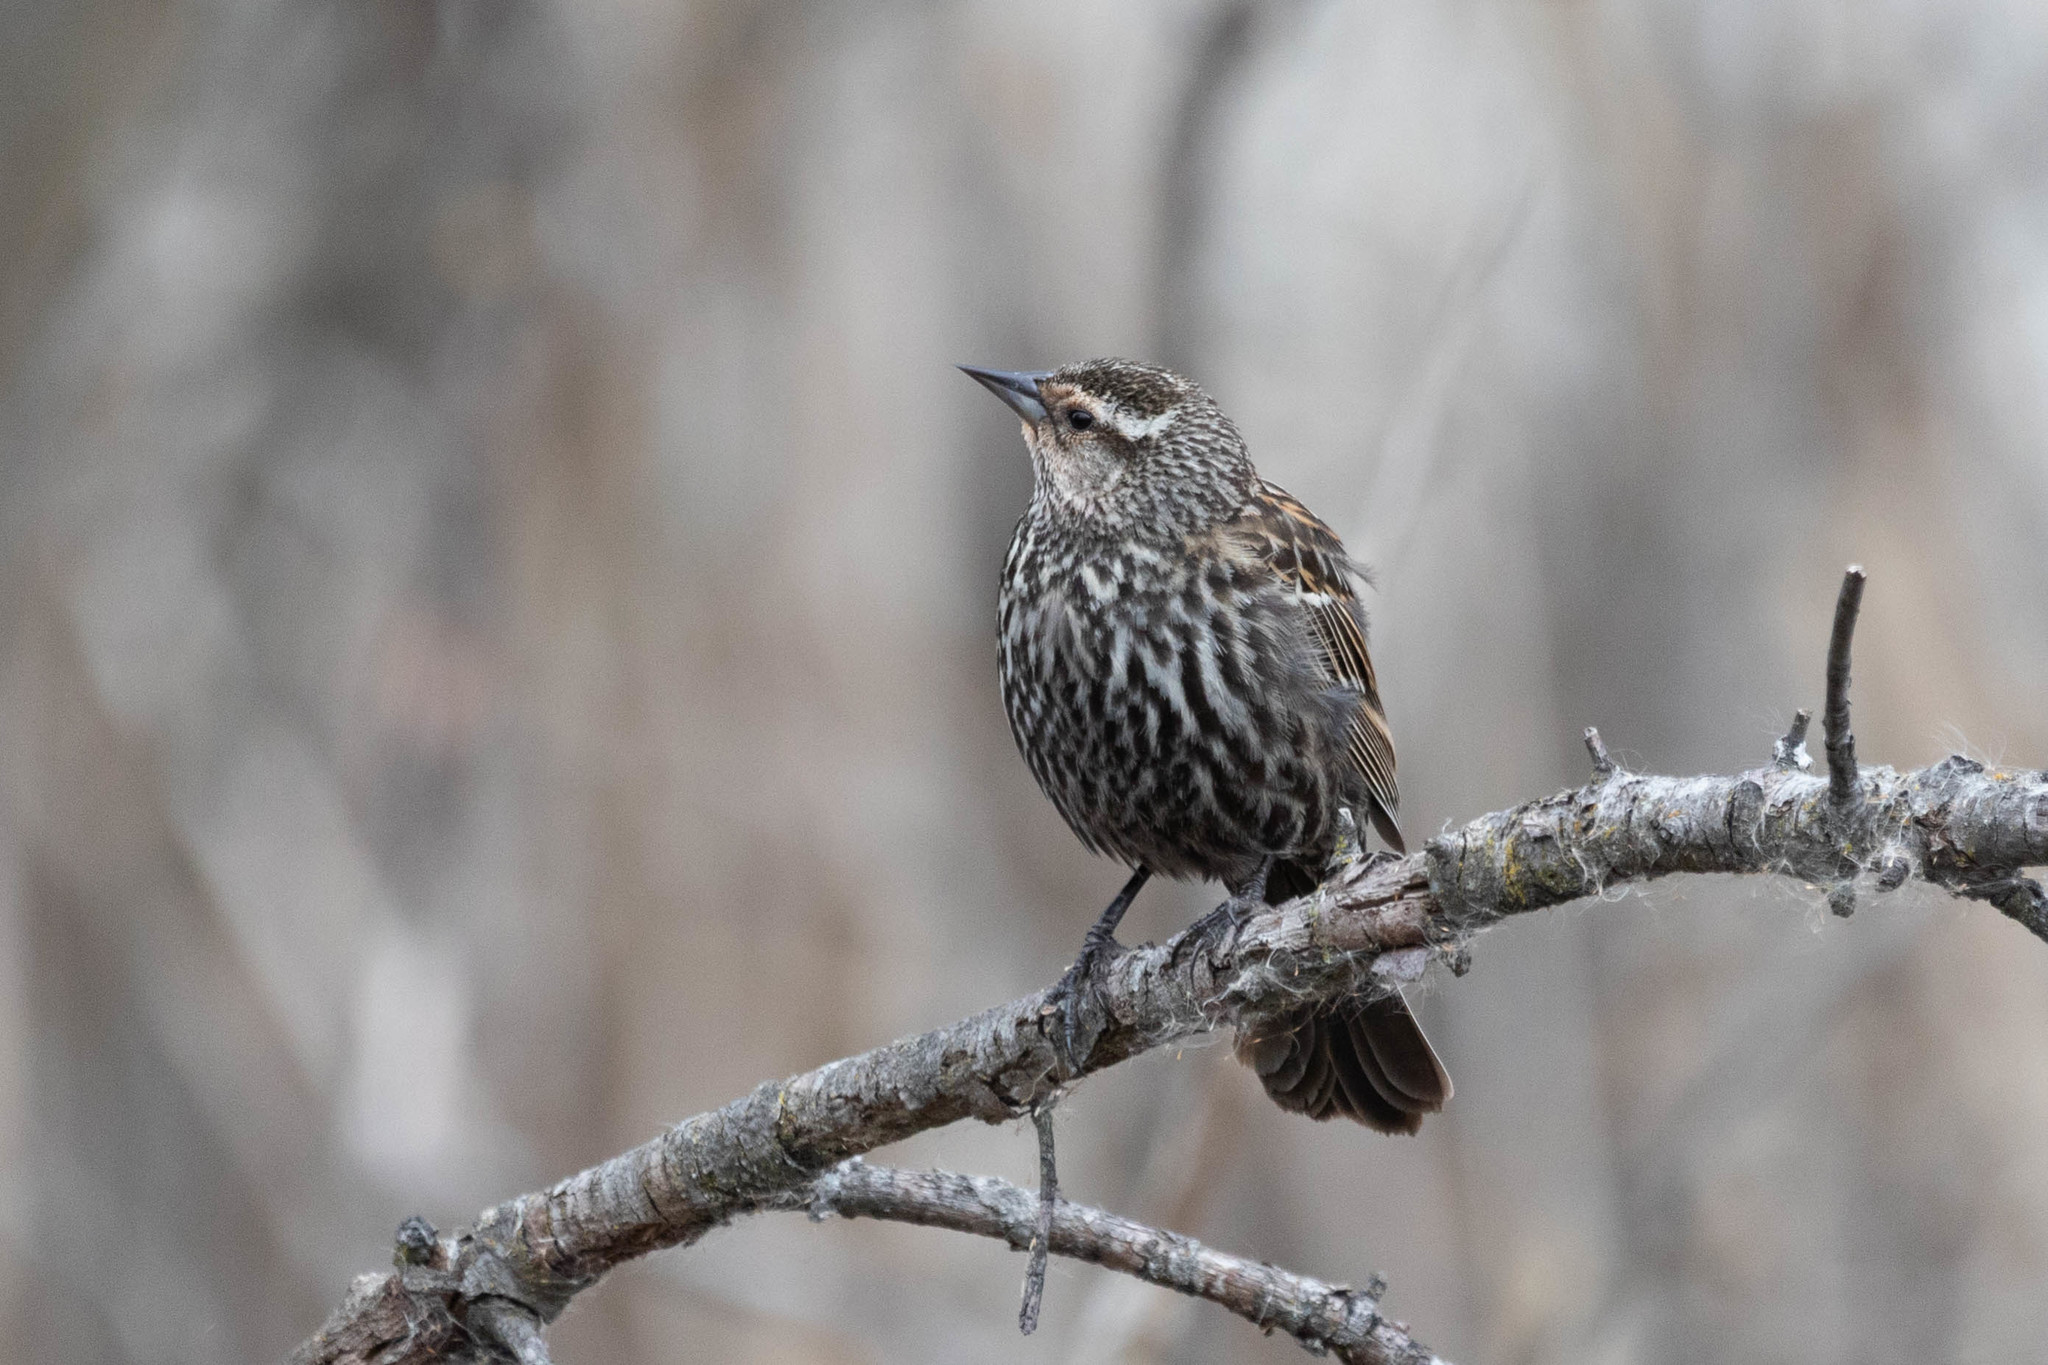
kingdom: Animalia
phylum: Chordata
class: Aves
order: Passeriformes
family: Icteridae
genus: Agelaius
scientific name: Agelaius phoeniceus
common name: Red-winged blackbird
